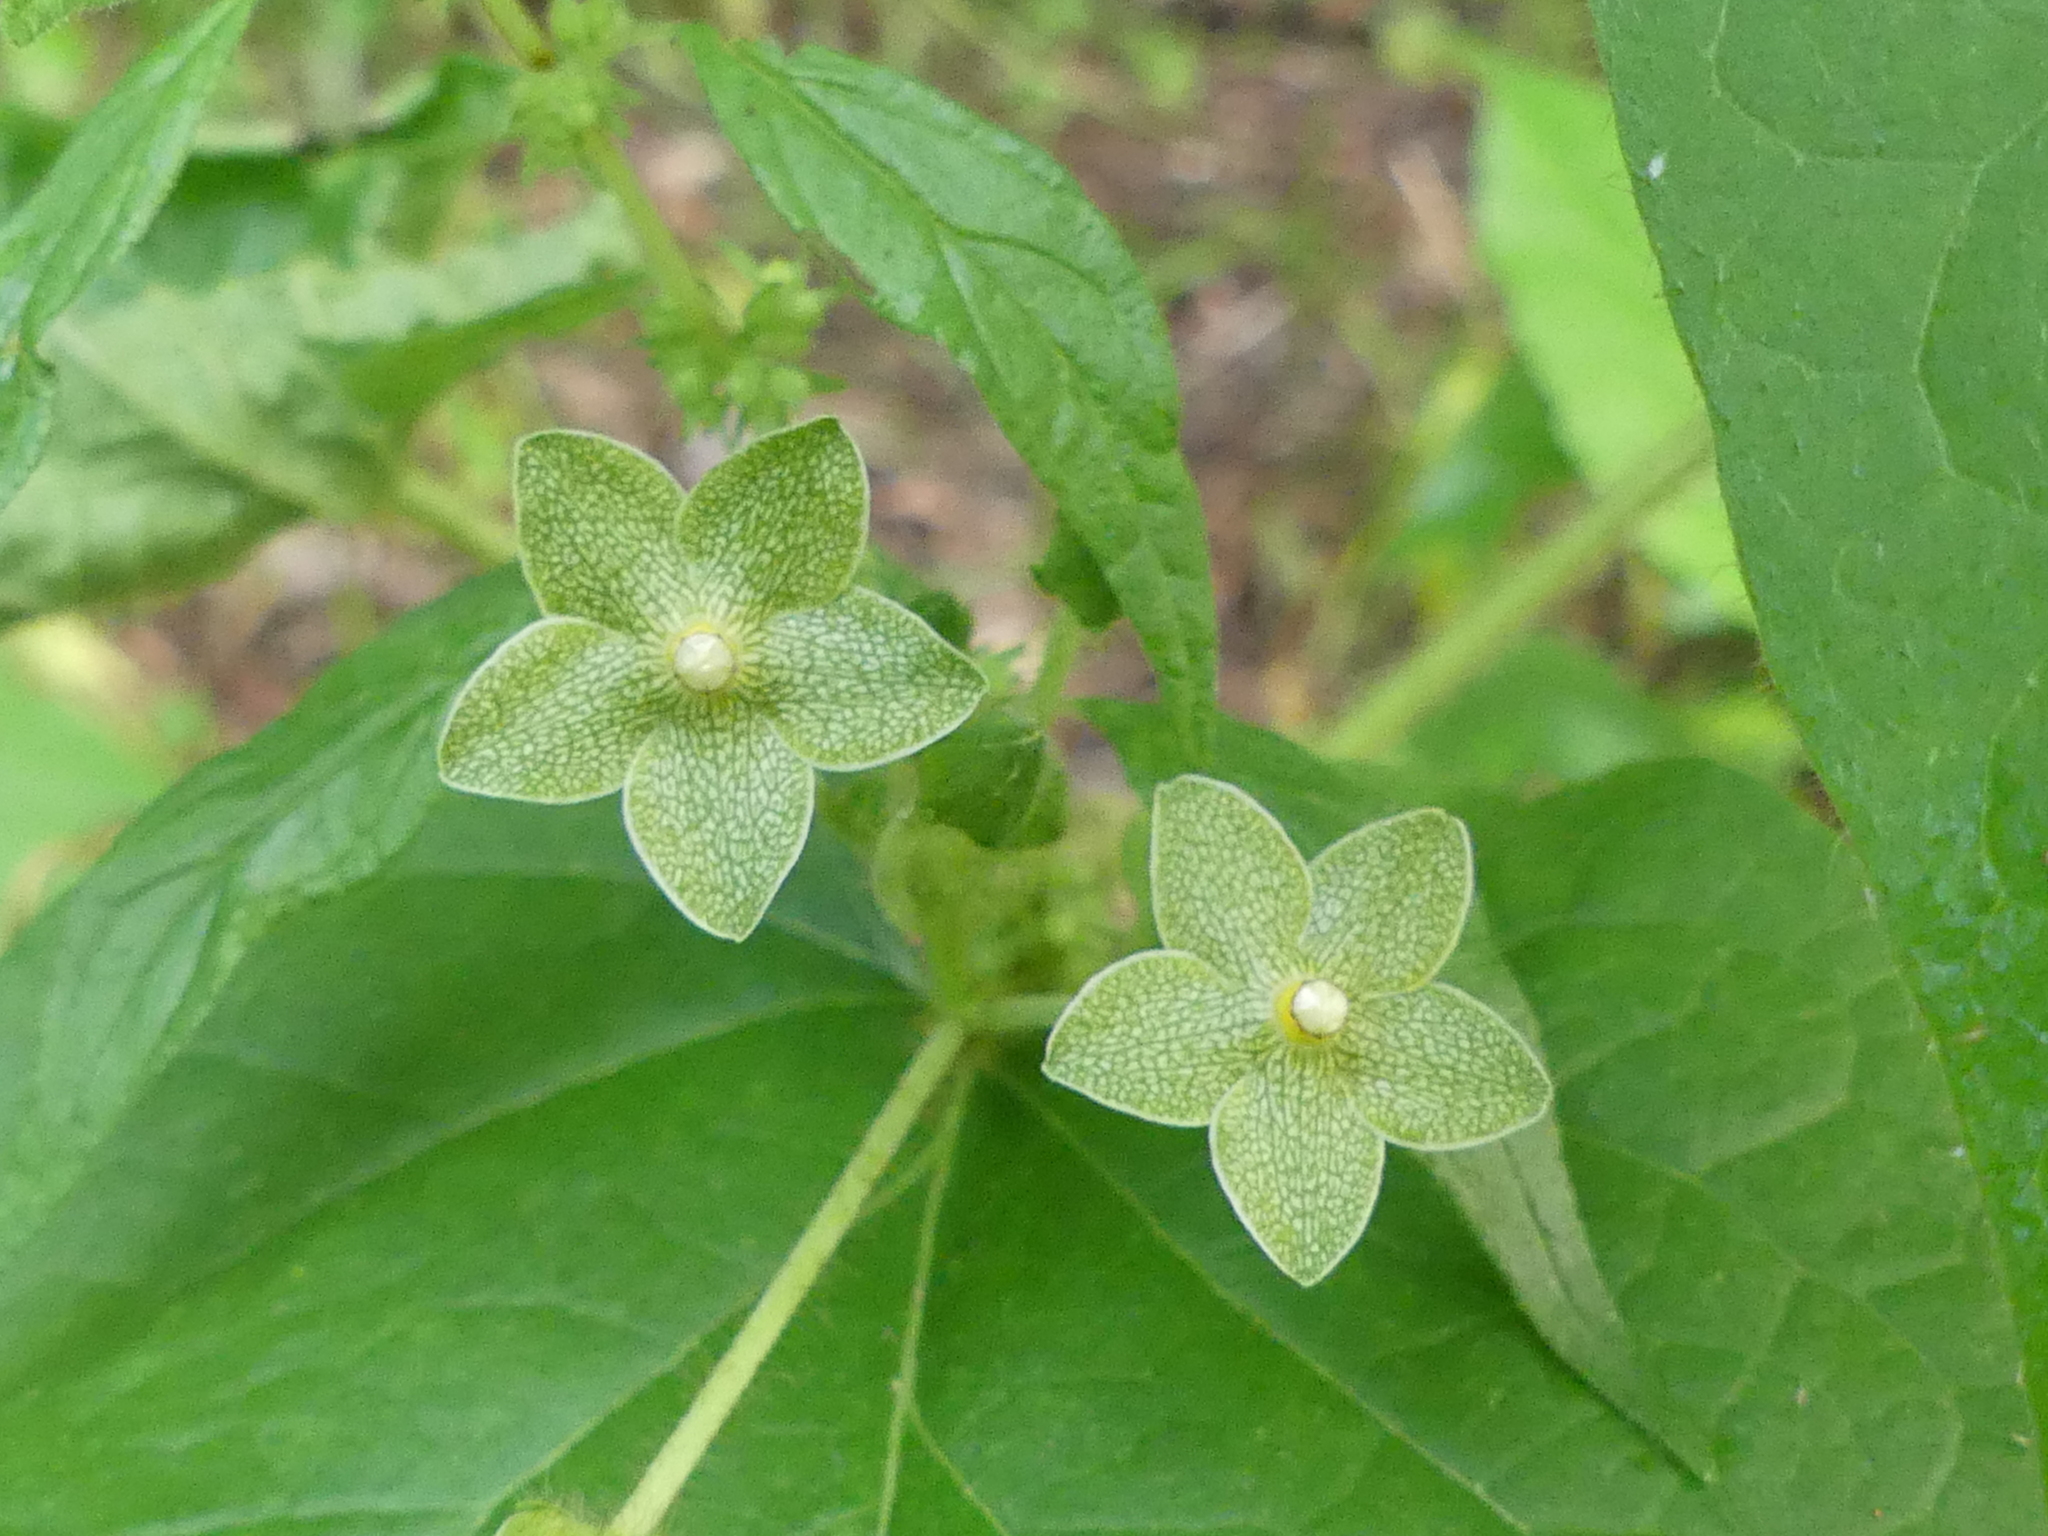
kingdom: Plantae
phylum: Tracheophyta
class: Magnoliopsida
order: Gentianales
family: Apocynaceae
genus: Dictyanthus
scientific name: Dictyanthus reticulatus
